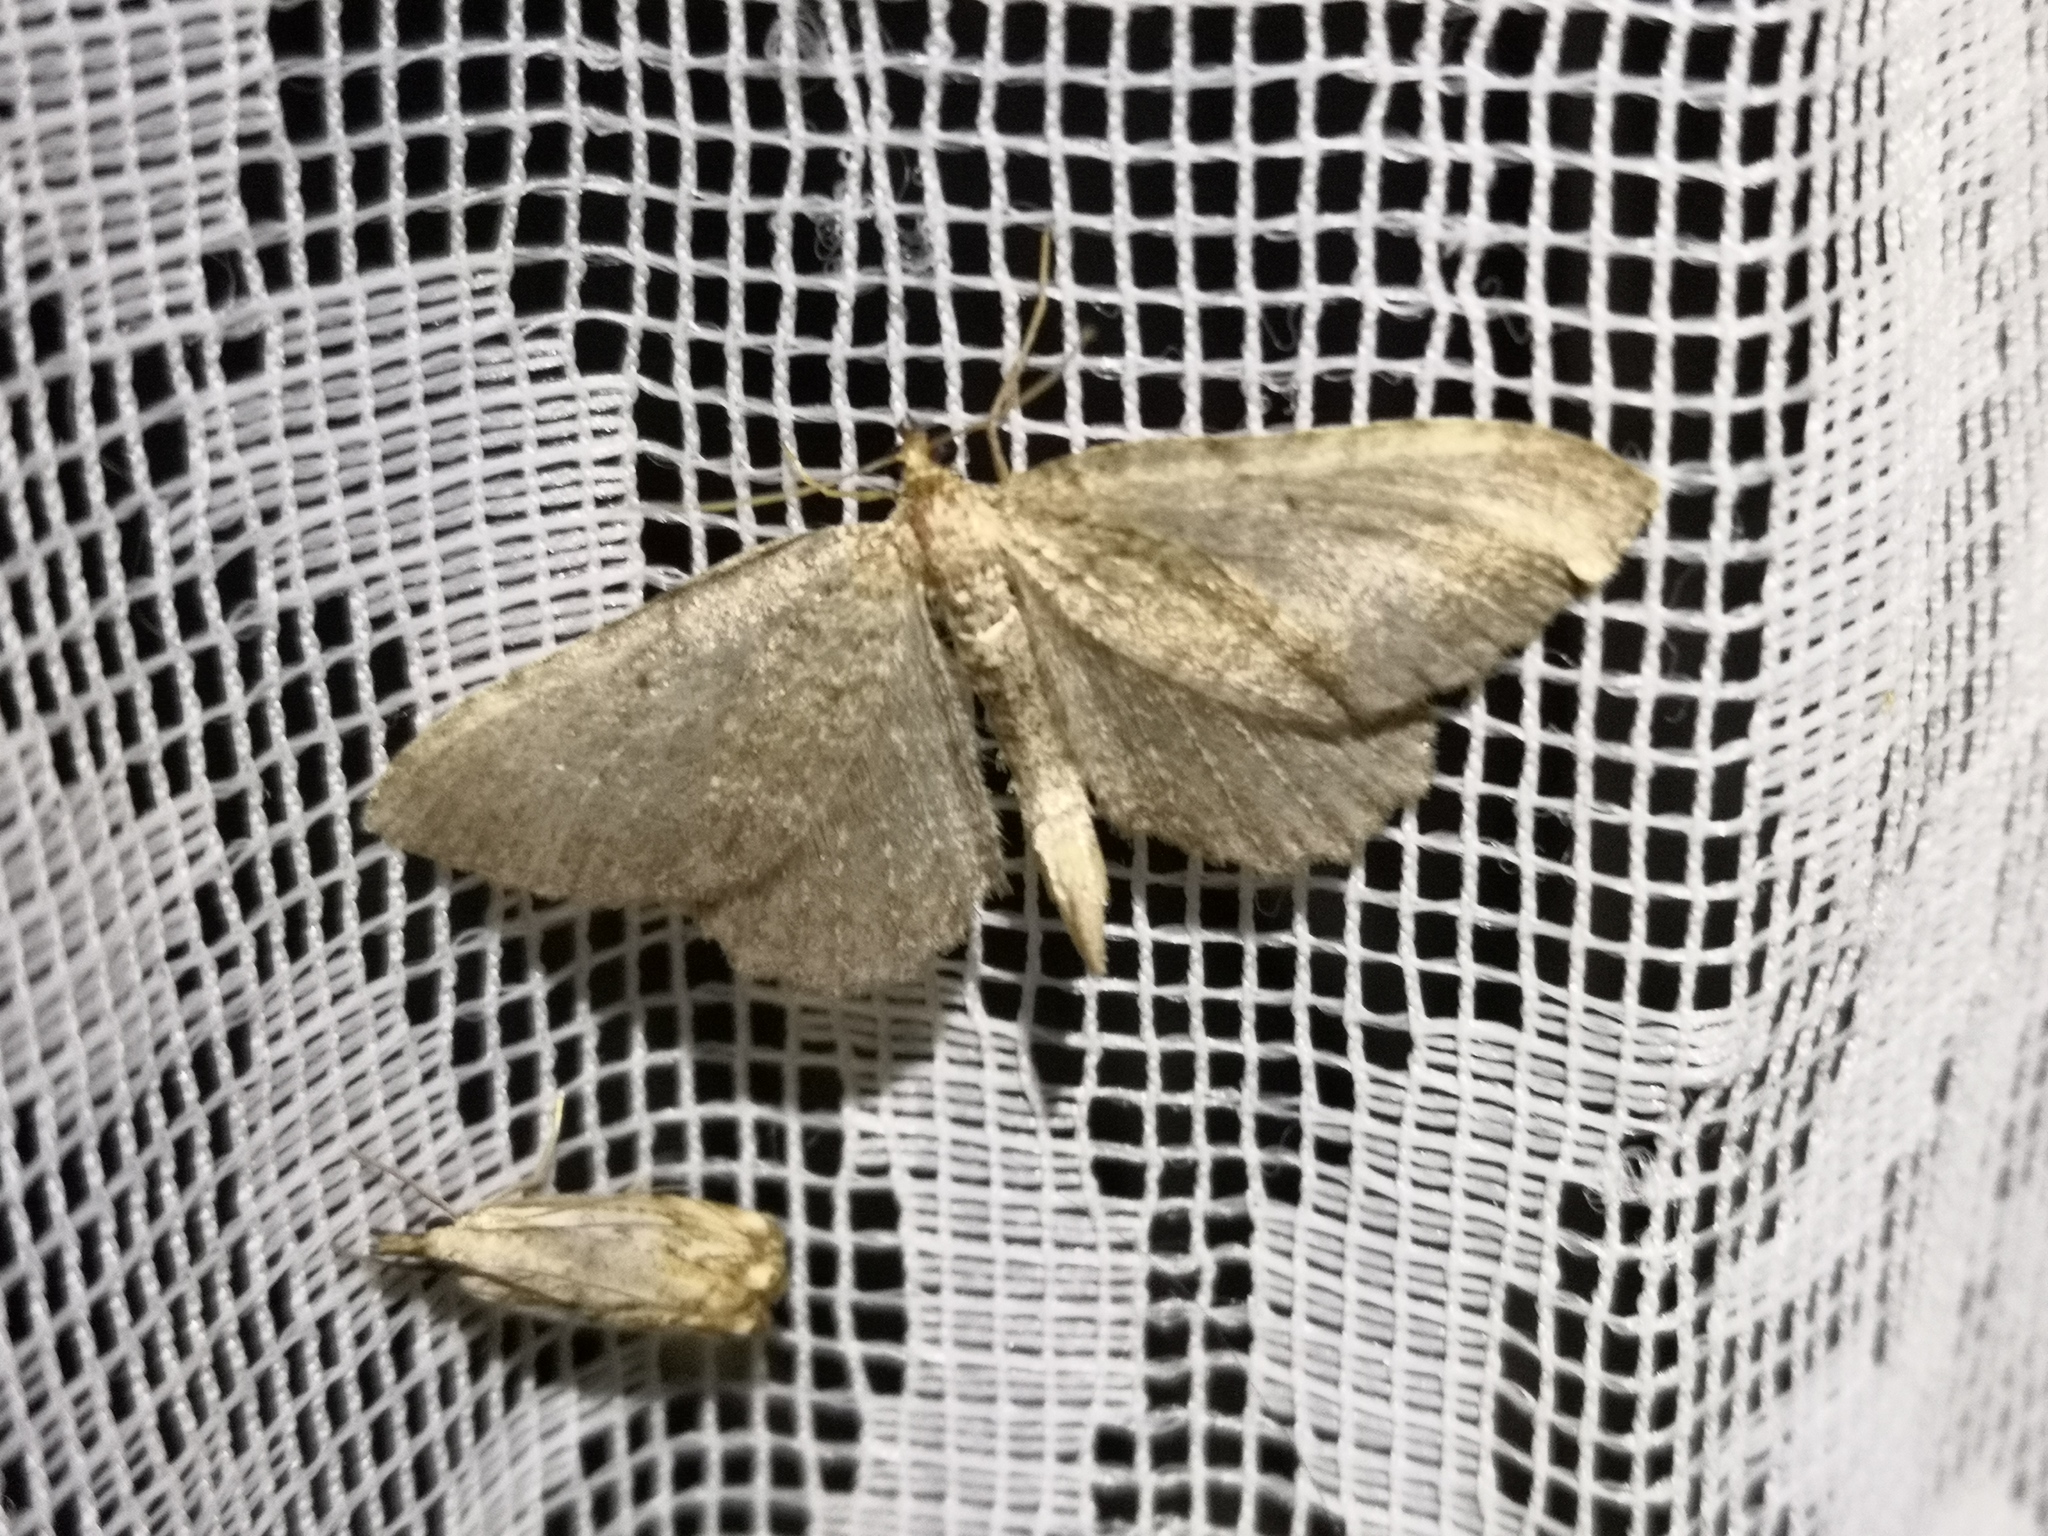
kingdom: Animalia
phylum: Arthropoda
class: Insecta
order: Lepidoptera
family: Geometridae
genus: Philereme
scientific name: Philereme vetulata
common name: Brown scallop
